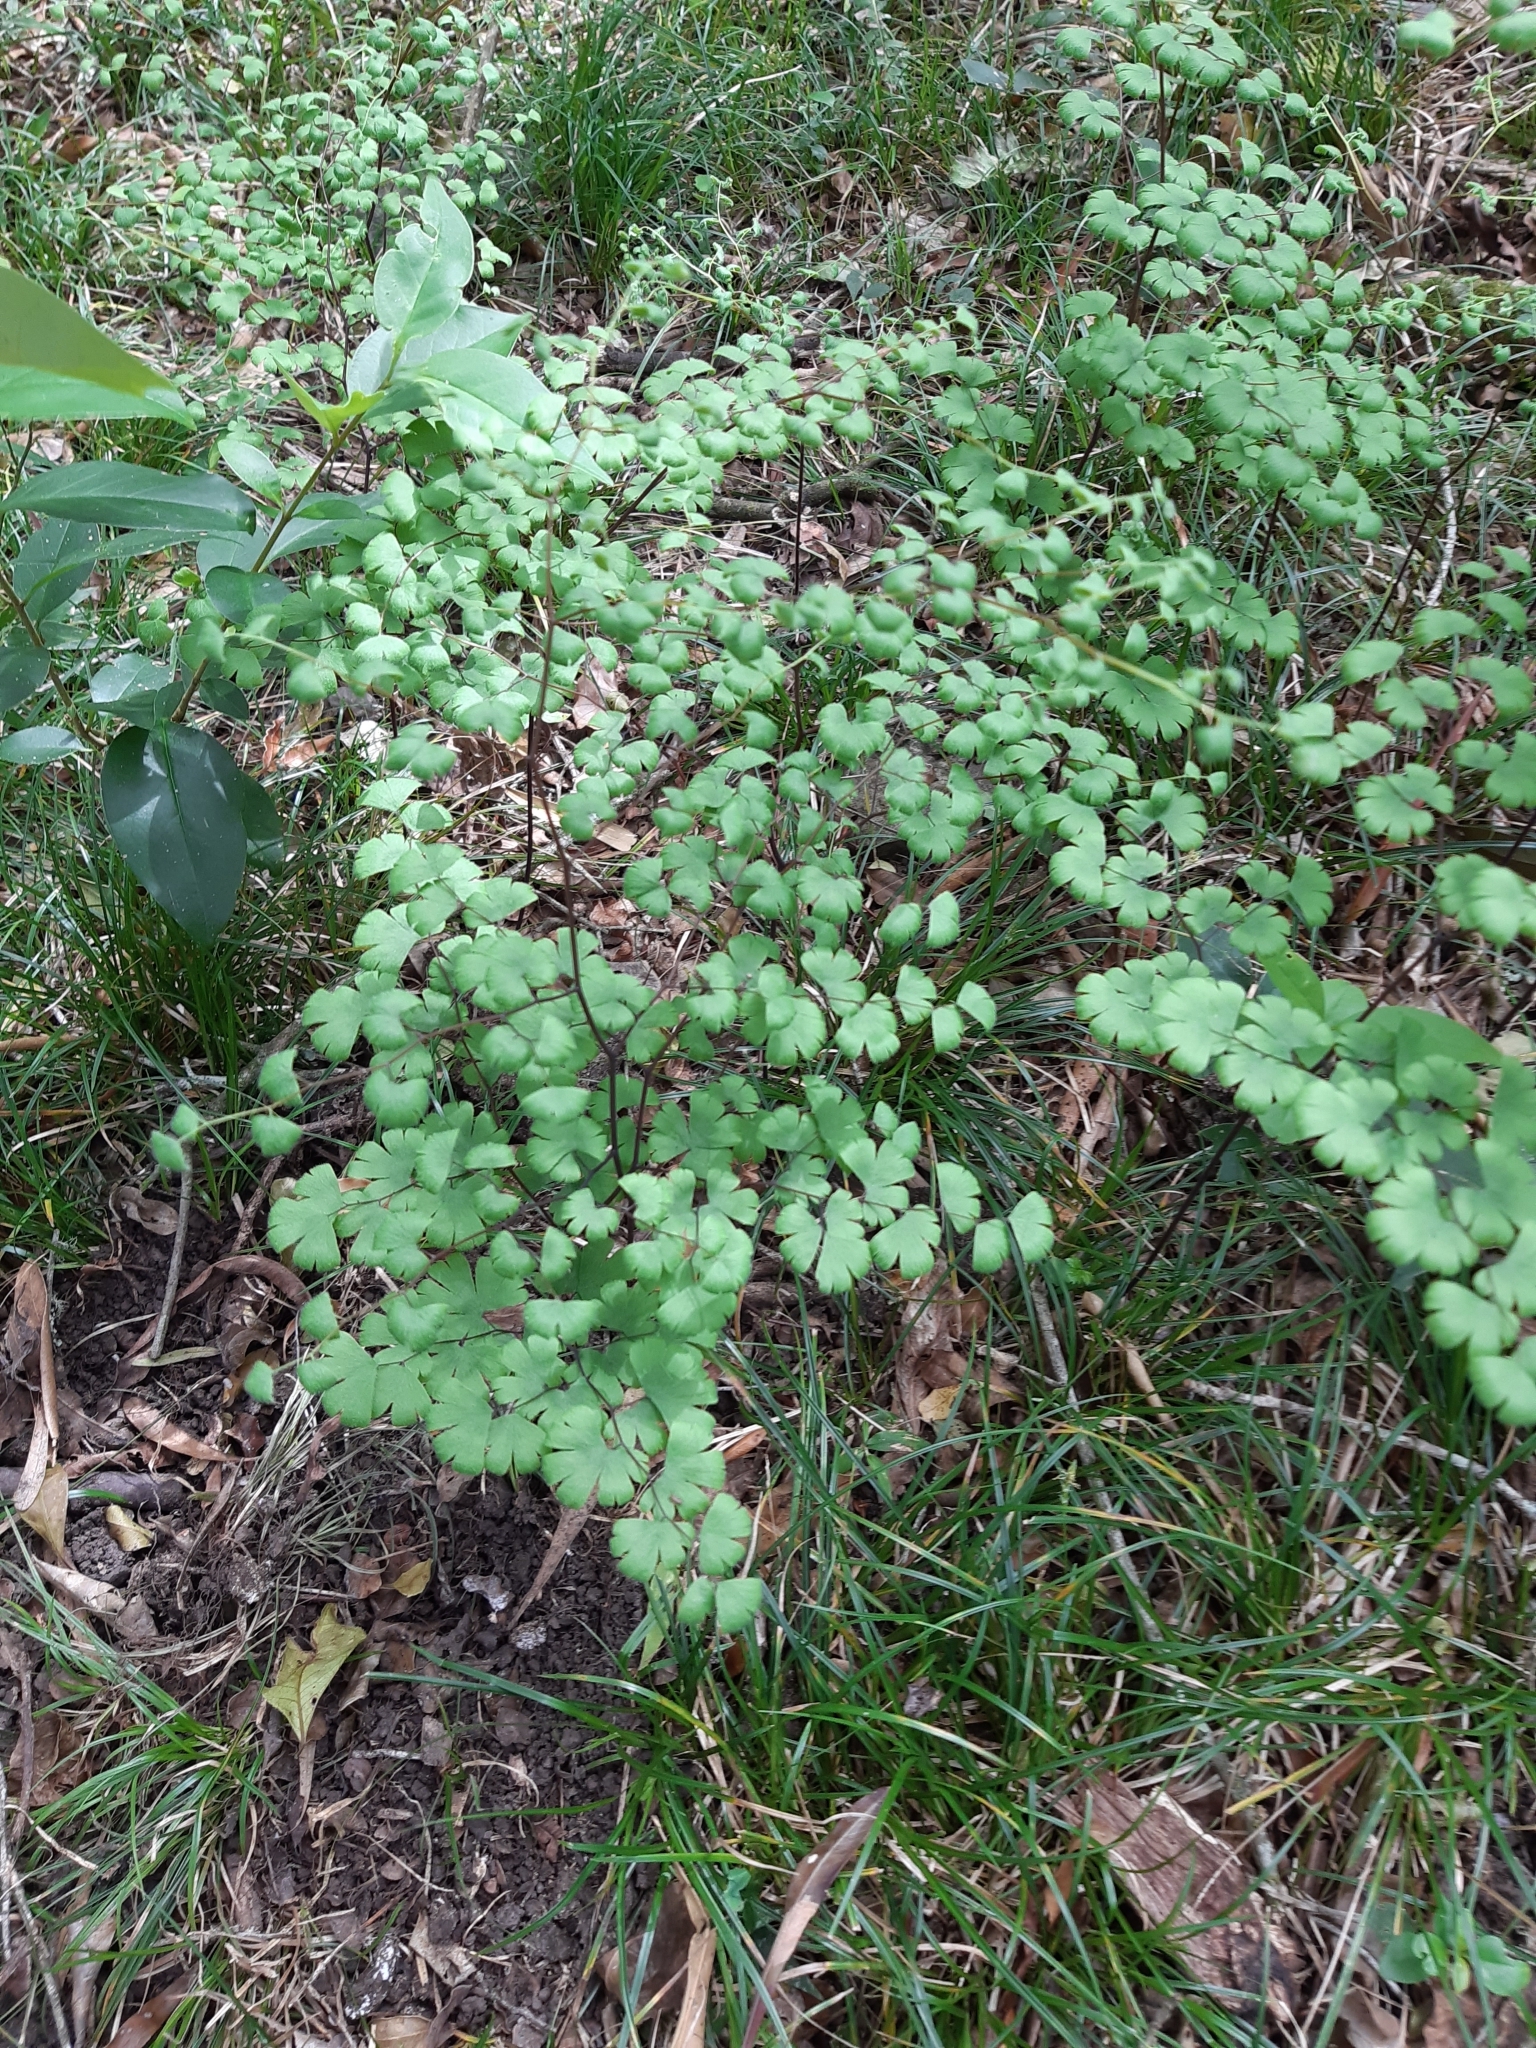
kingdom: Plantae
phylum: Tracheophyta
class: Polypodiopsida
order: Polypodiales
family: Pteridaceae
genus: Adiantum
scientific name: Adiantum digitatum
